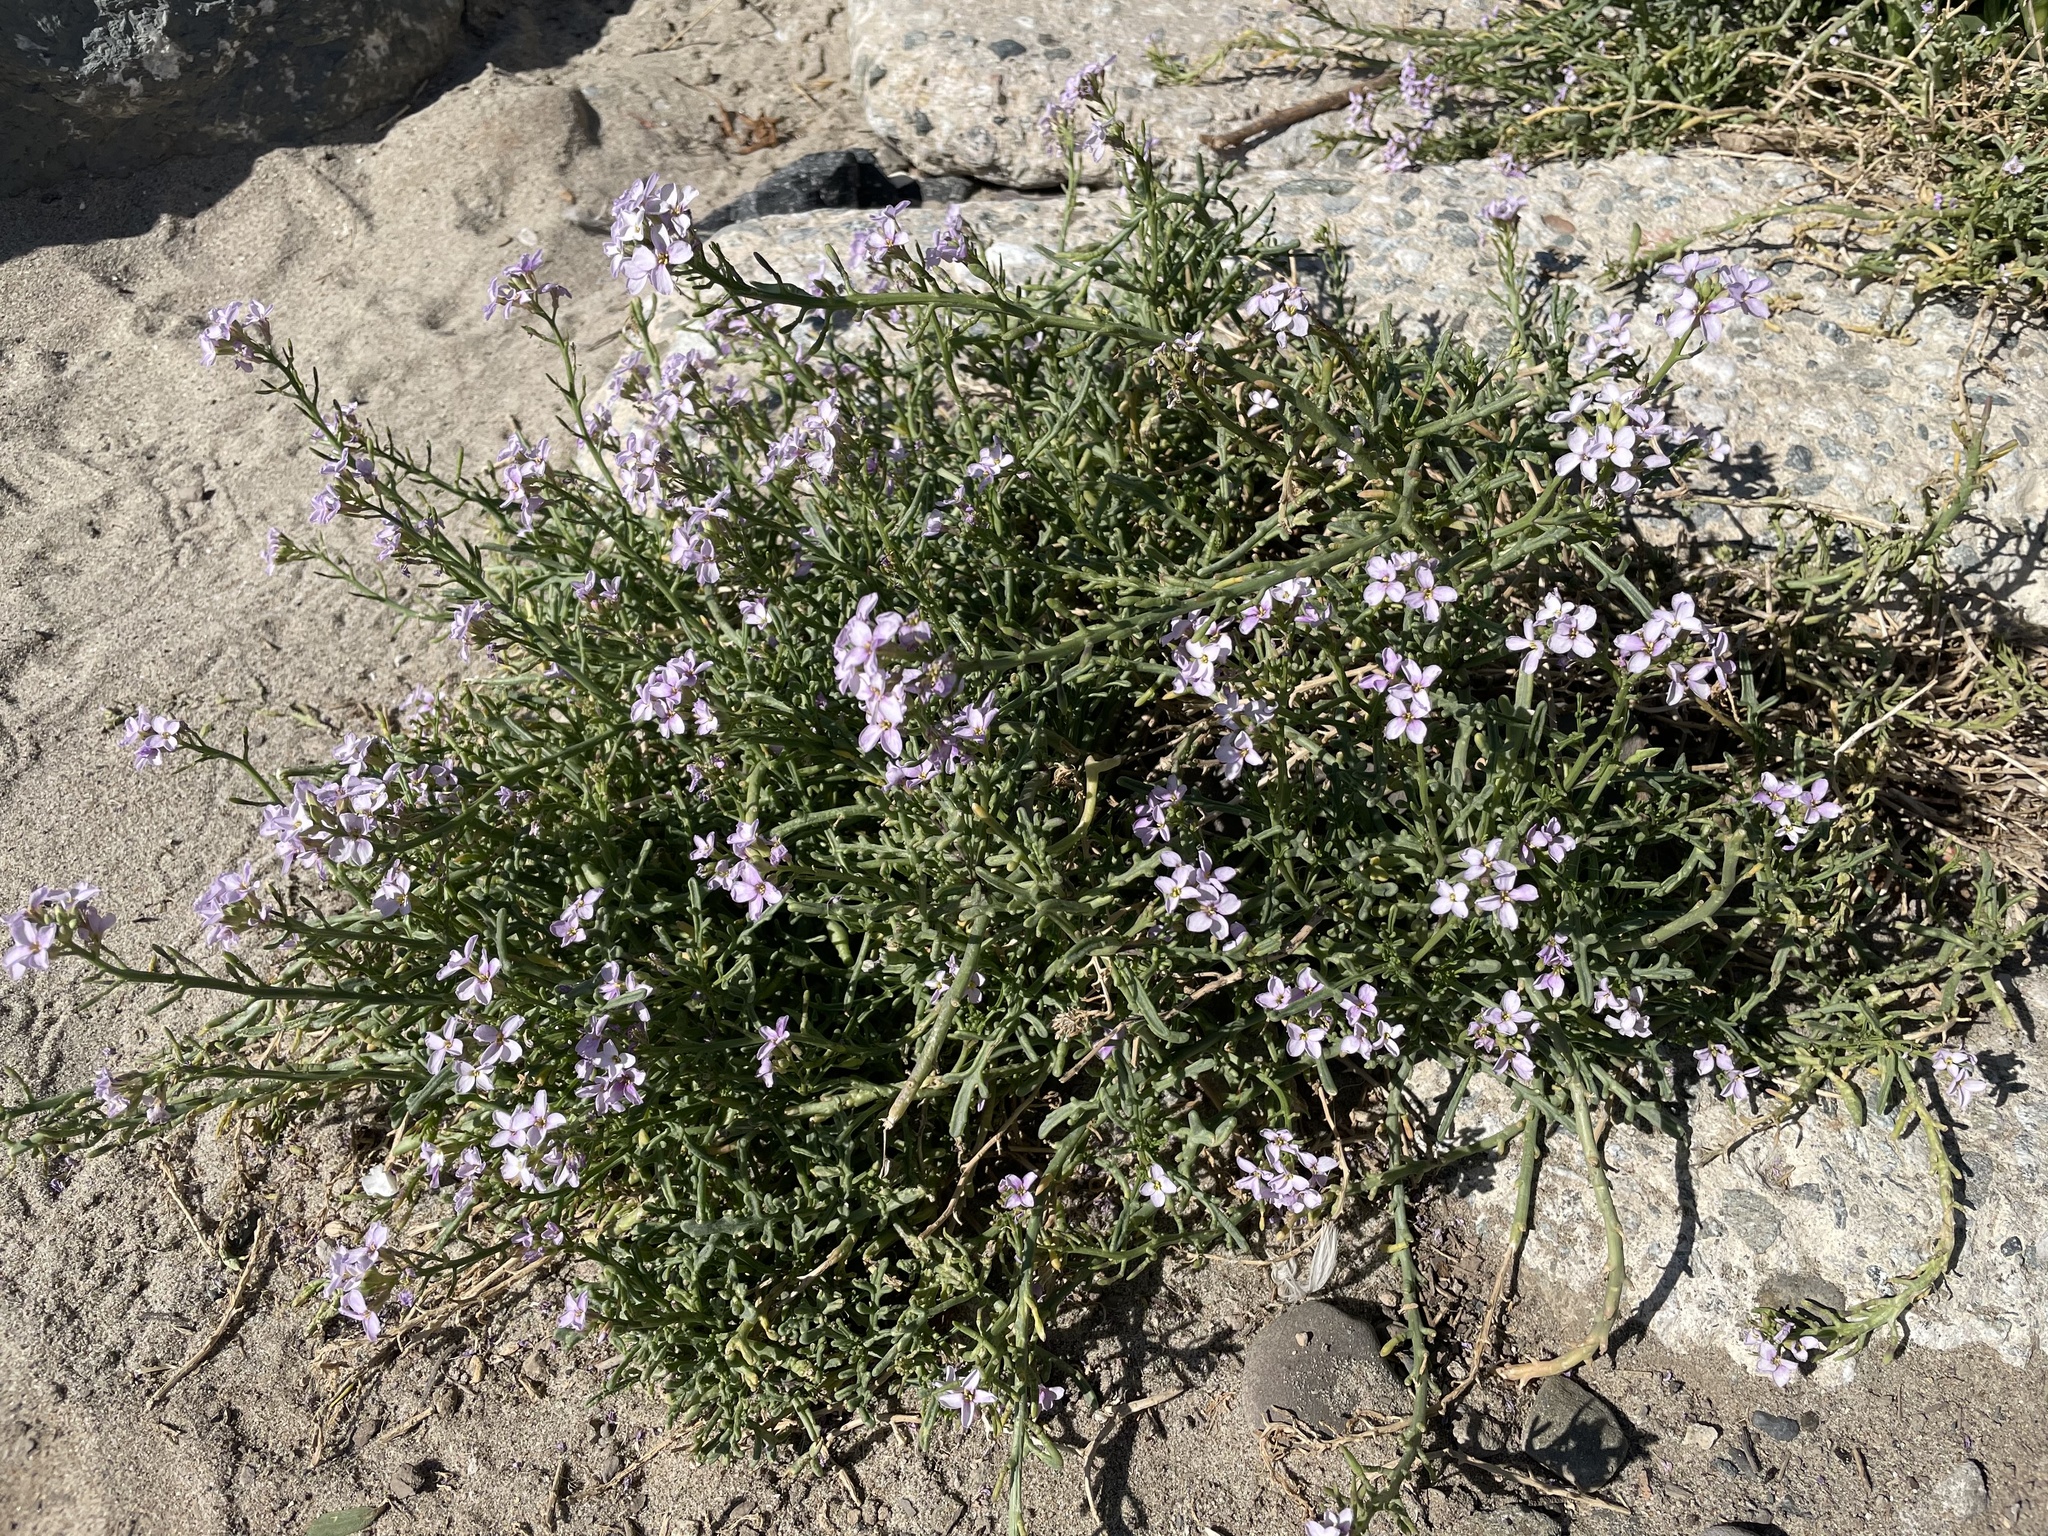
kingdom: Plantae
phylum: Tracheophyta
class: Magnoliopsida
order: Brassicales
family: Brassicaceae
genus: Cakile
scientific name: Cakile maritima
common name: Sea rocket
